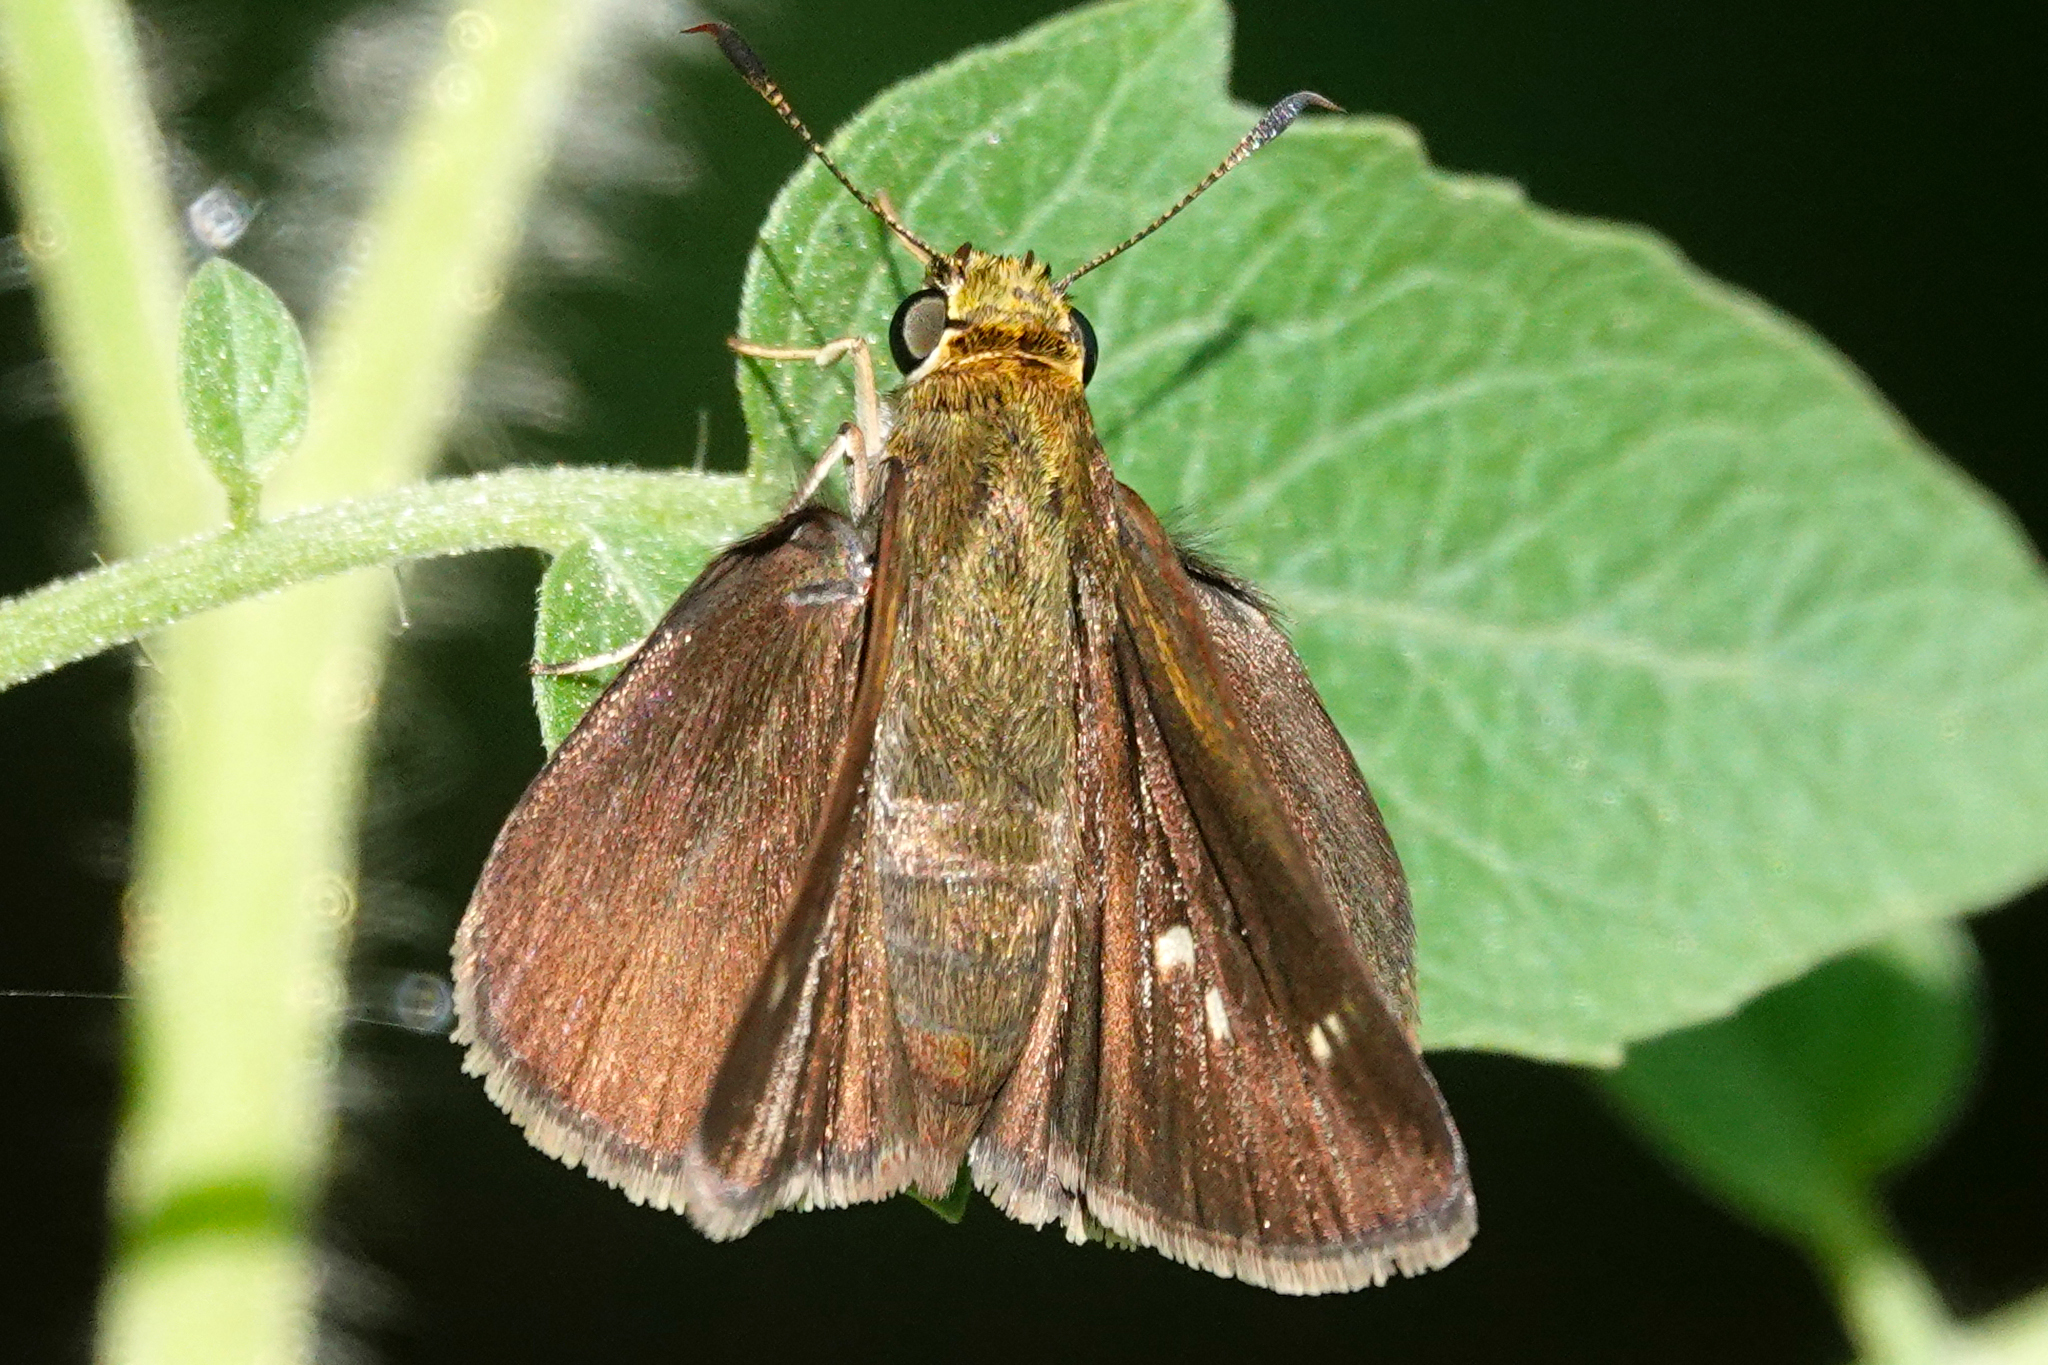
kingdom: Animalia
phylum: Arthropoda
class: Insecta
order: Lepidoptera
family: Hesperiidae
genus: Euphyes
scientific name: Euphyes vestris
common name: Dun skipper
